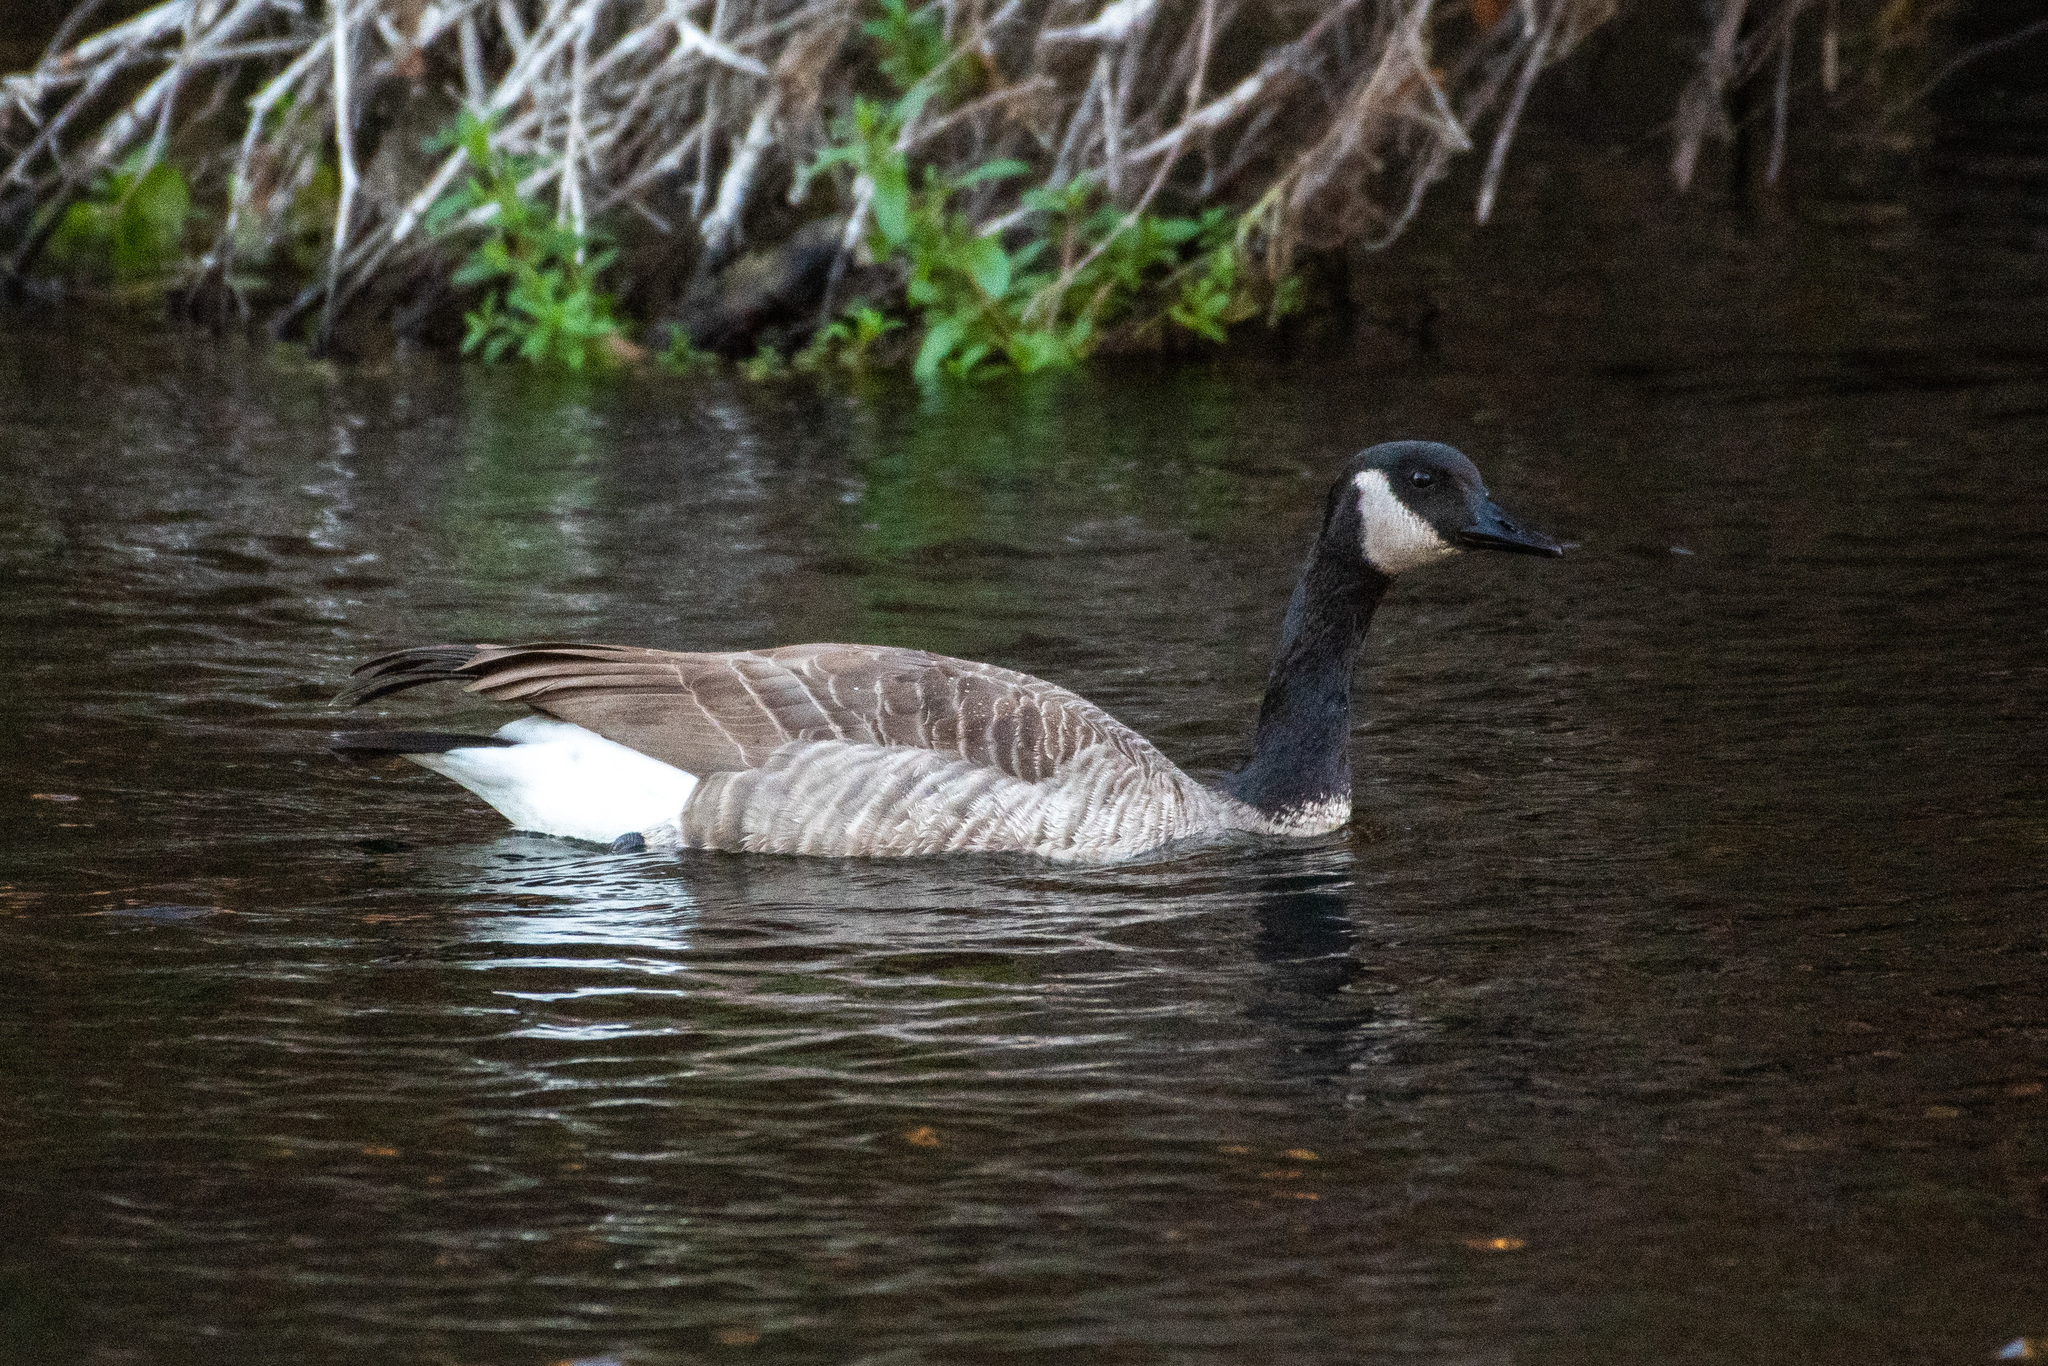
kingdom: Animalia
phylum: Chordata
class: Aves
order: Anseriformes
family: Anatidae
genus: Branta
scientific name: Branta canadensis
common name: Canada goose
